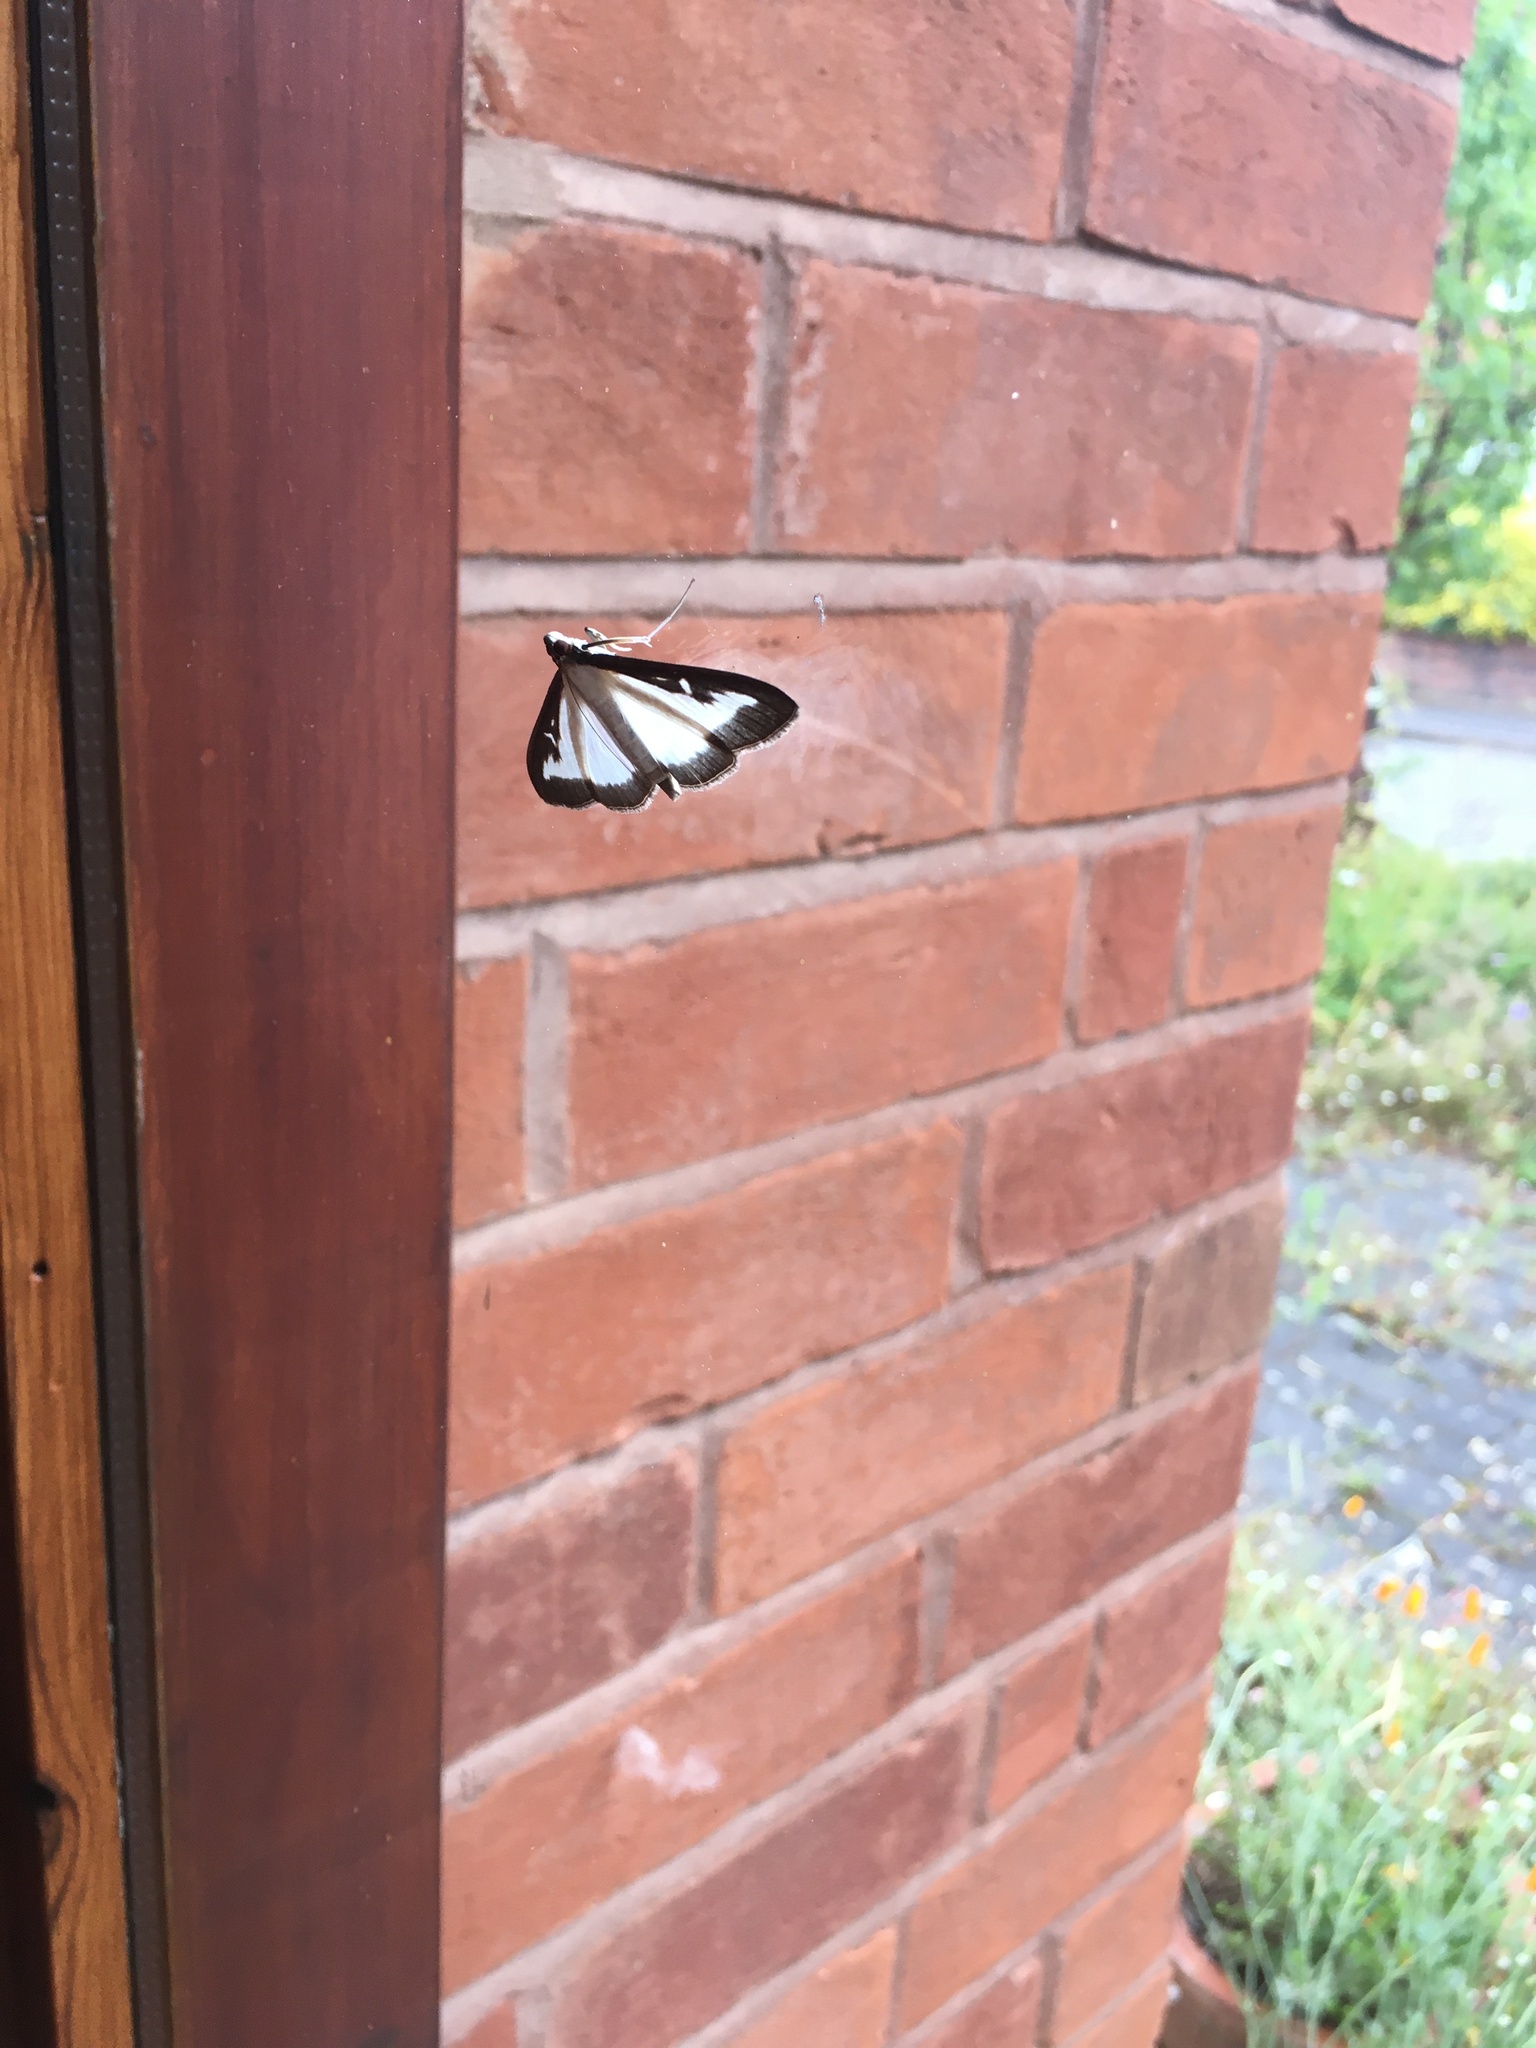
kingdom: Animalia
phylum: Arthropoda
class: Insecta
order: Lepidoptera
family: Crambidae
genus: Cydalima
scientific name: Cydalima perspectalis
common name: Box tree moth
